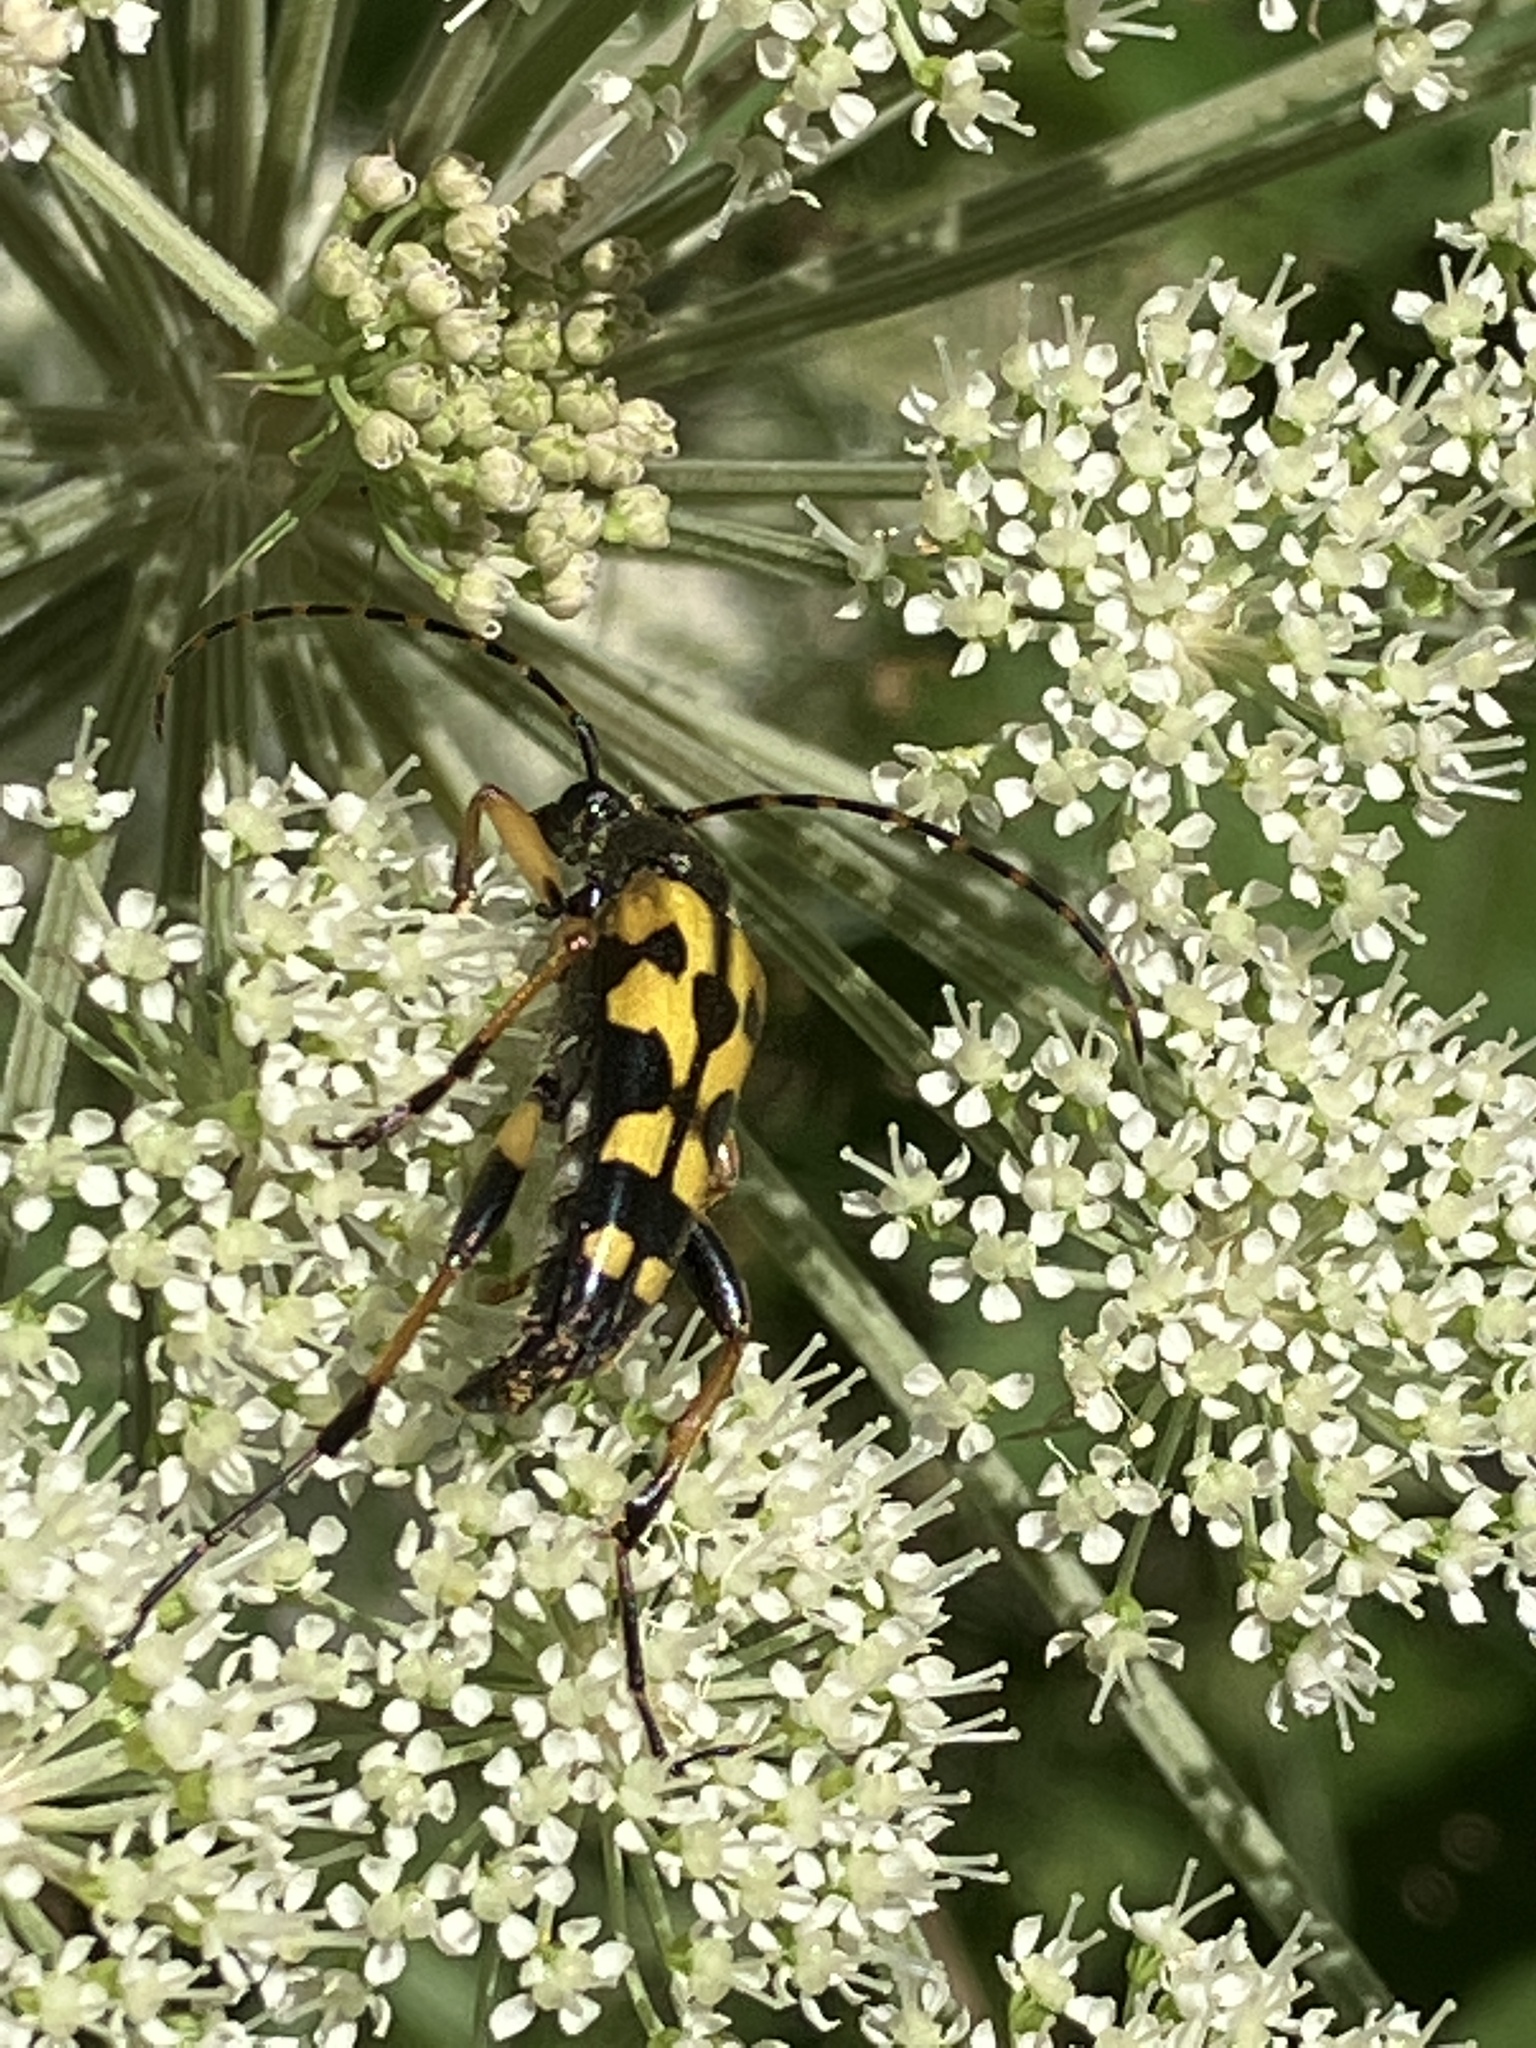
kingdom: Animalia
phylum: Arthropoda
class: Insecta
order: Coleoptera
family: Cerambycidae
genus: Rutpela
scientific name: Rutpela maculata
